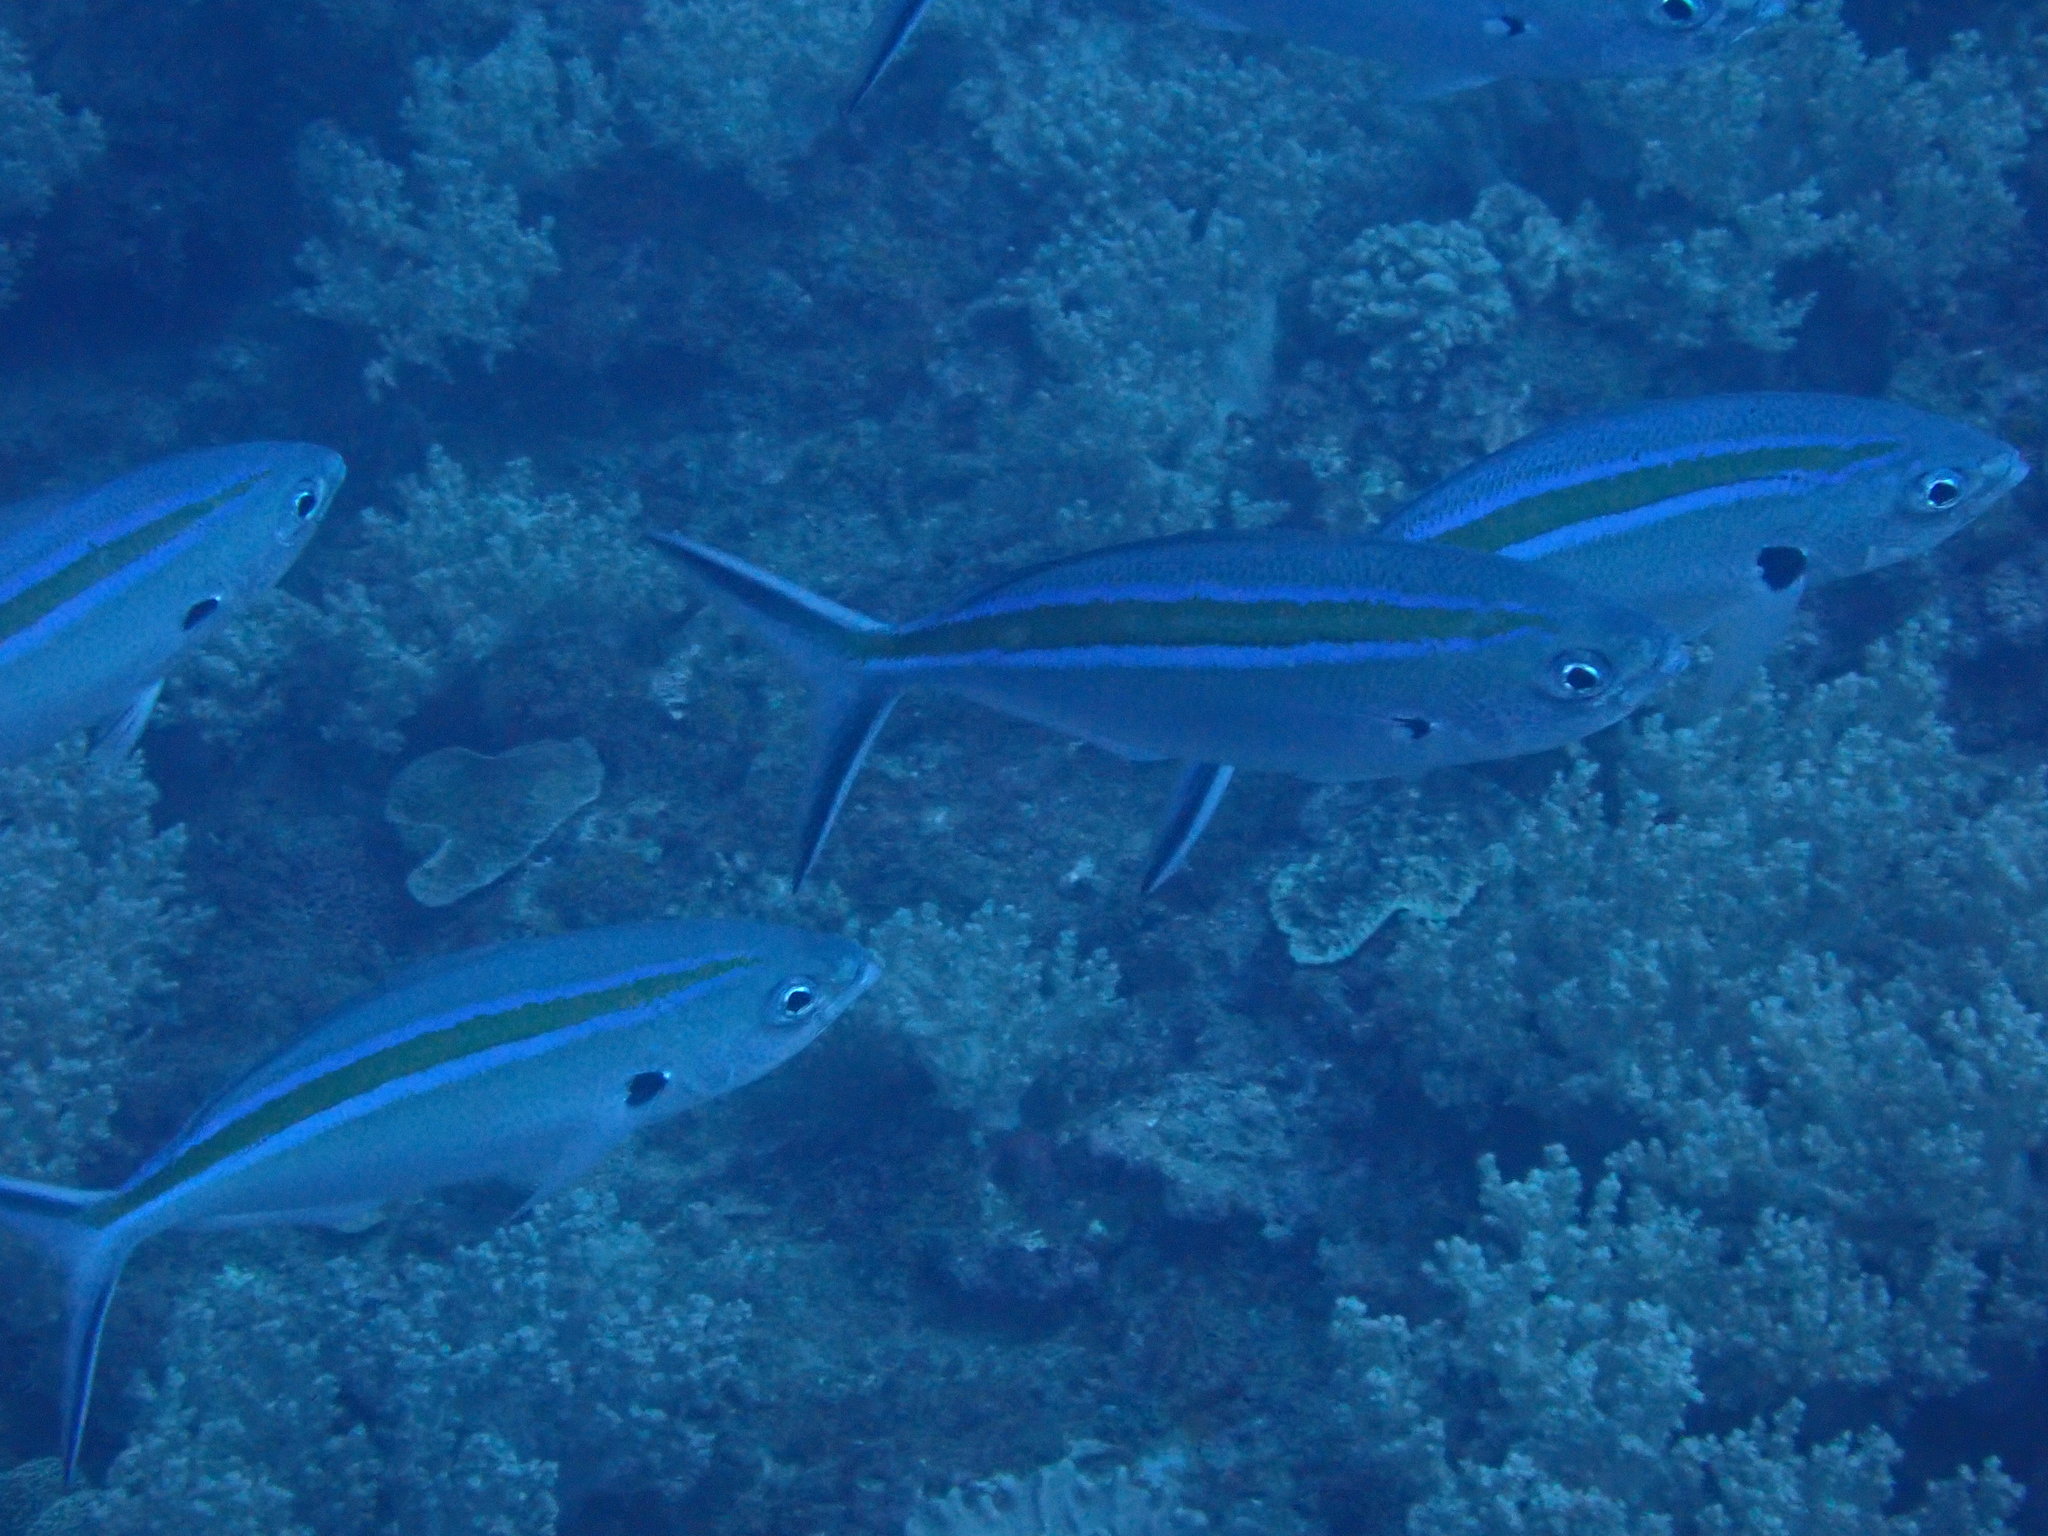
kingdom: Animalia
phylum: Chordata
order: Perciformes
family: Caesionidae
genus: Caesio
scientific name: Caesio caerulaurea
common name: Blue and gold fusilier
